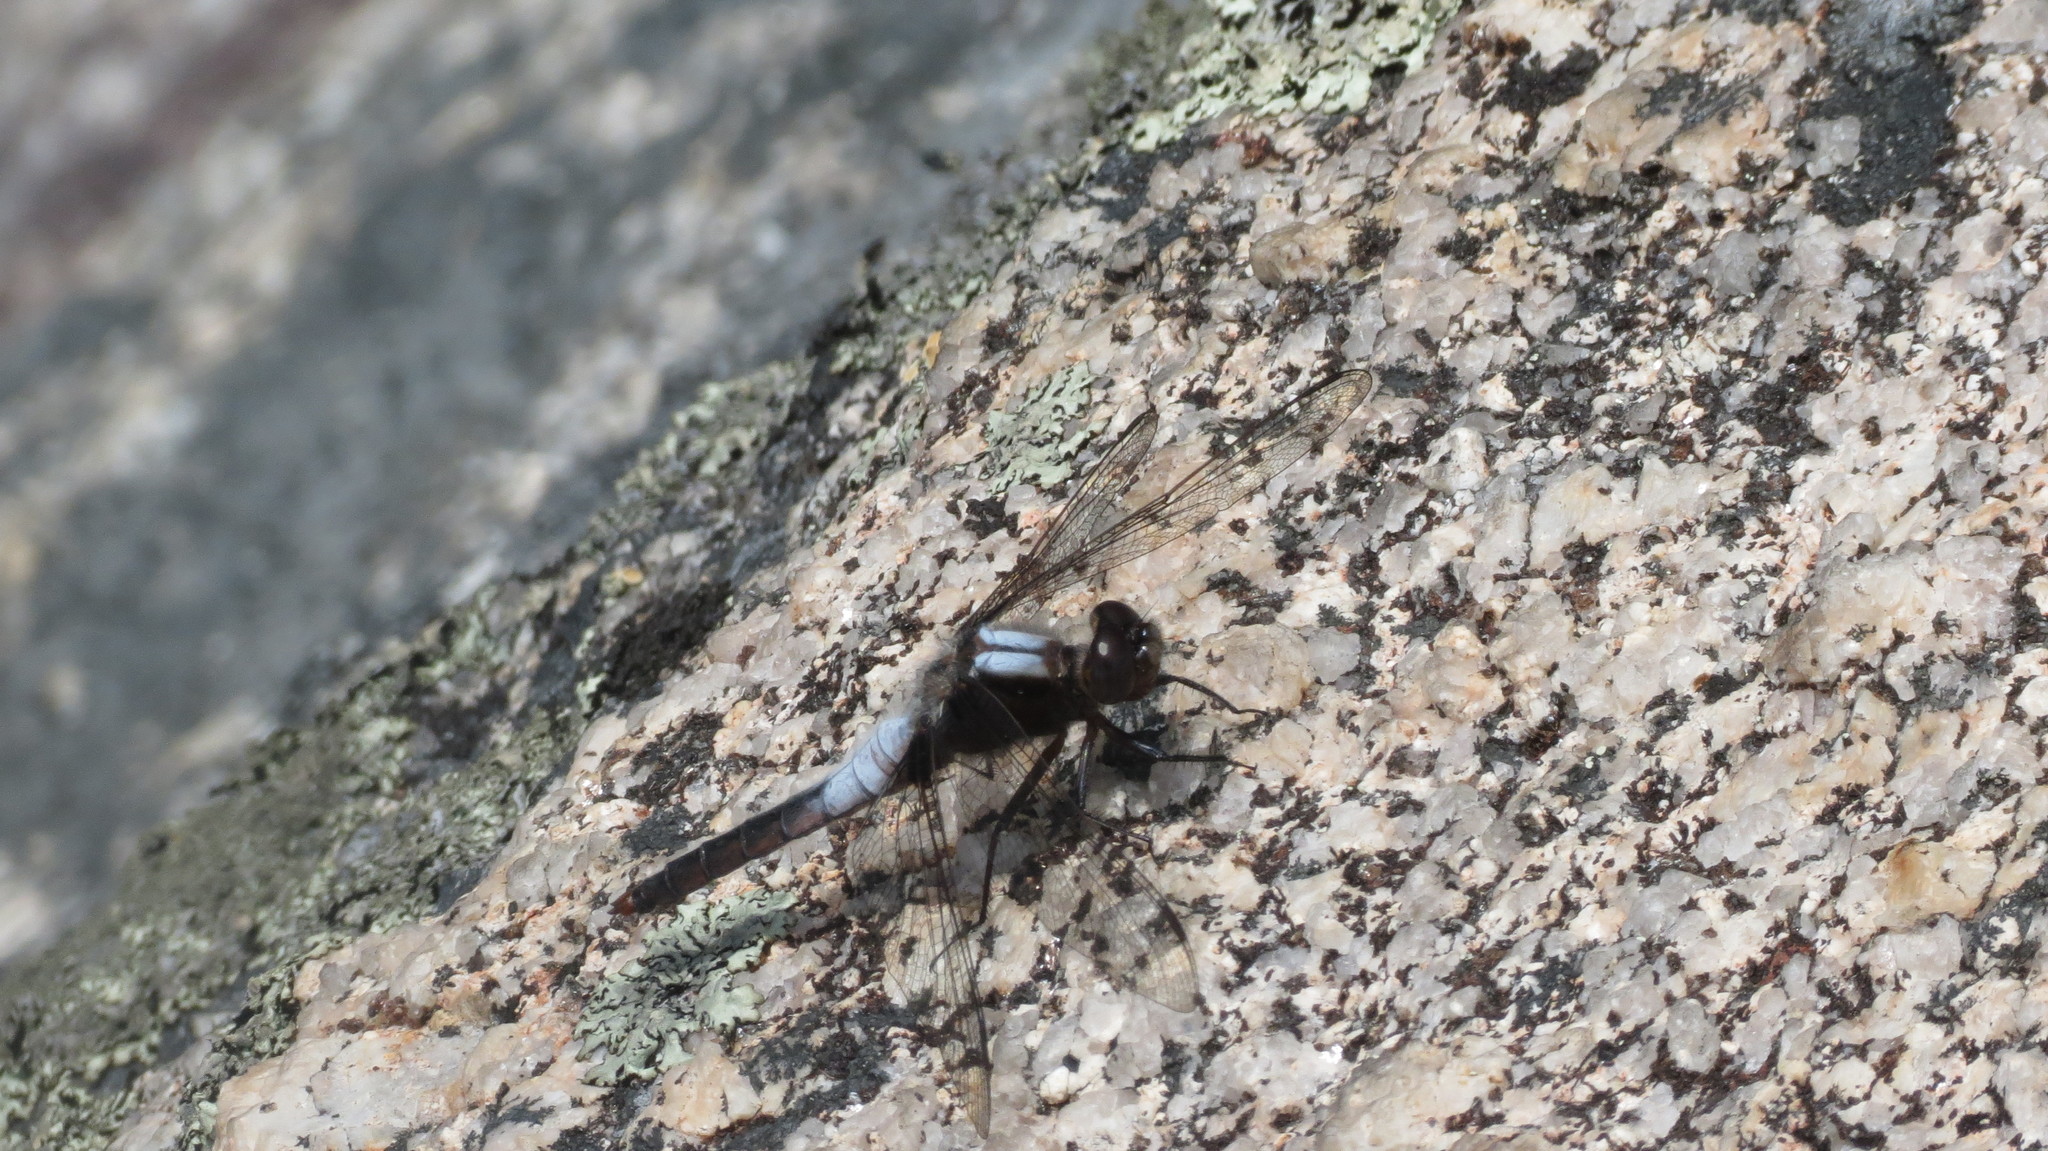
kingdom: Animalia
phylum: Arthropoda
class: Insecta
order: Odonata
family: Libellulidae
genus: Ladona
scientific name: Ladona julia
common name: Chalk-fronted corporal
